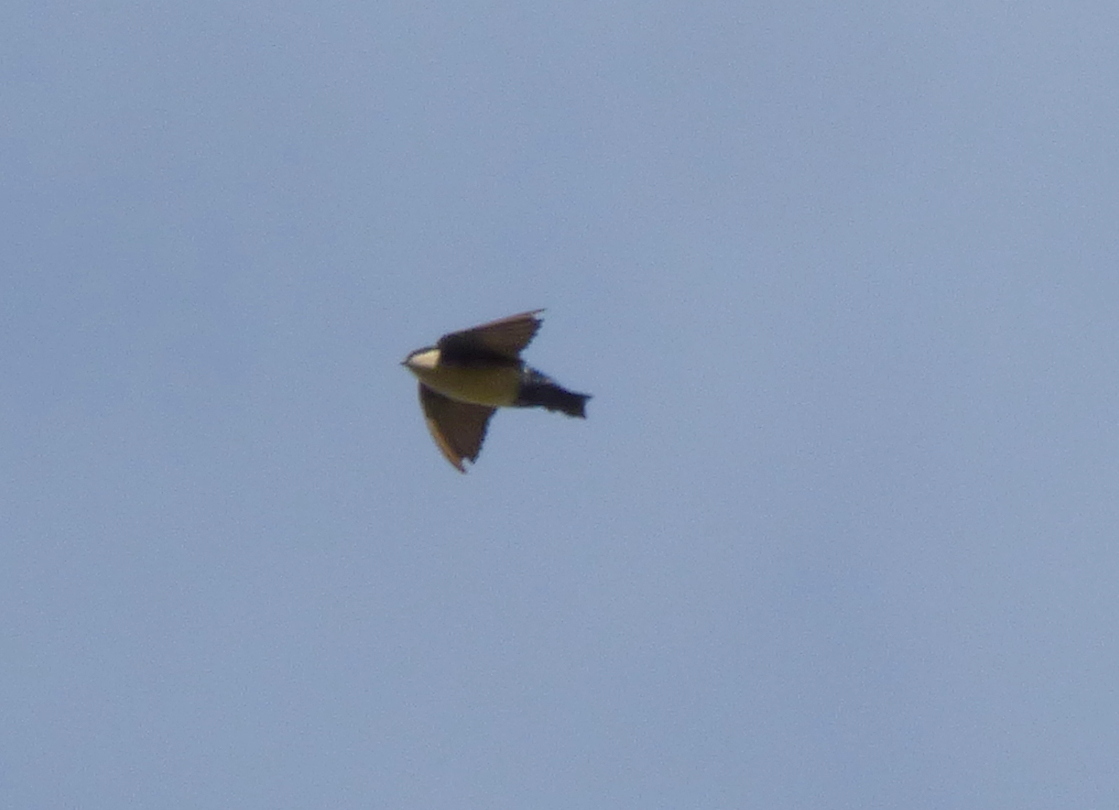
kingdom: Animalia
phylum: Chordata
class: Aves
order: Passeriformes
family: Hirundinidae
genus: Notiochelidon
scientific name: Notiochelidon cyanoleuca
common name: Blue-and-white swallow
